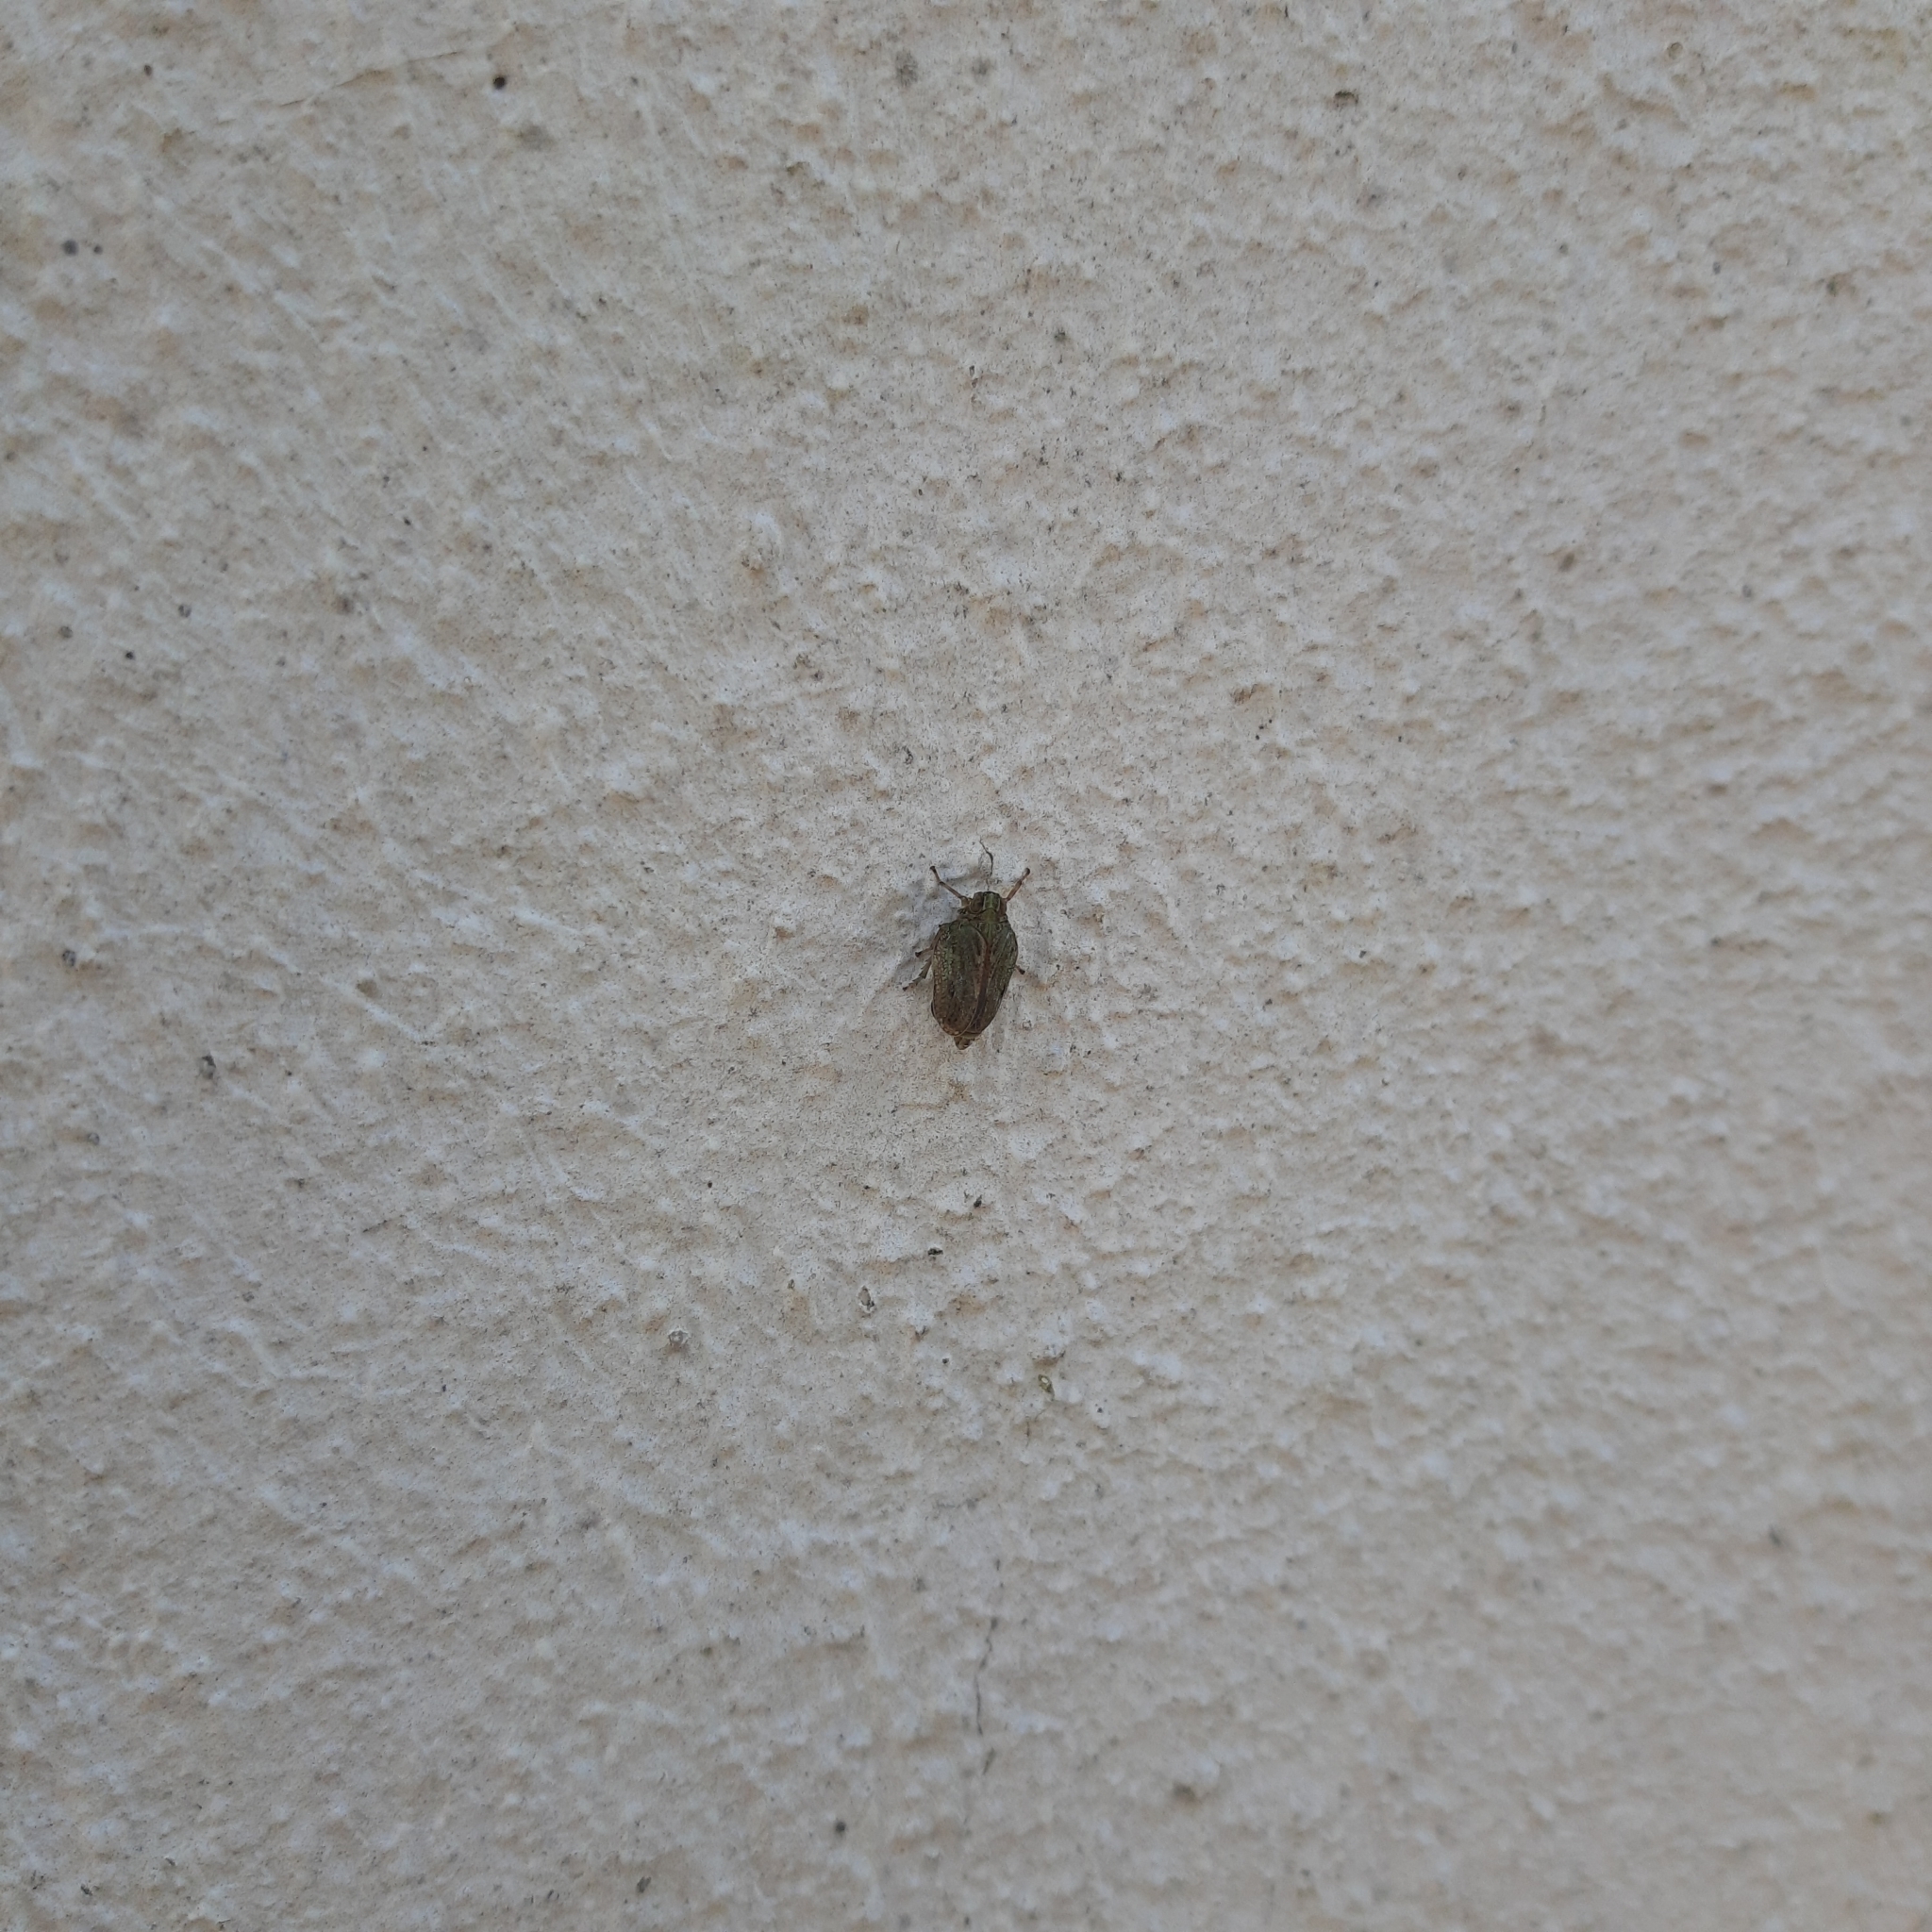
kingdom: Animalia
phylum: Arthropoda
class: Insecta
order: Hemiptera
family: Issidae
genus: Issus
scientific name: Issus coleoptratus
